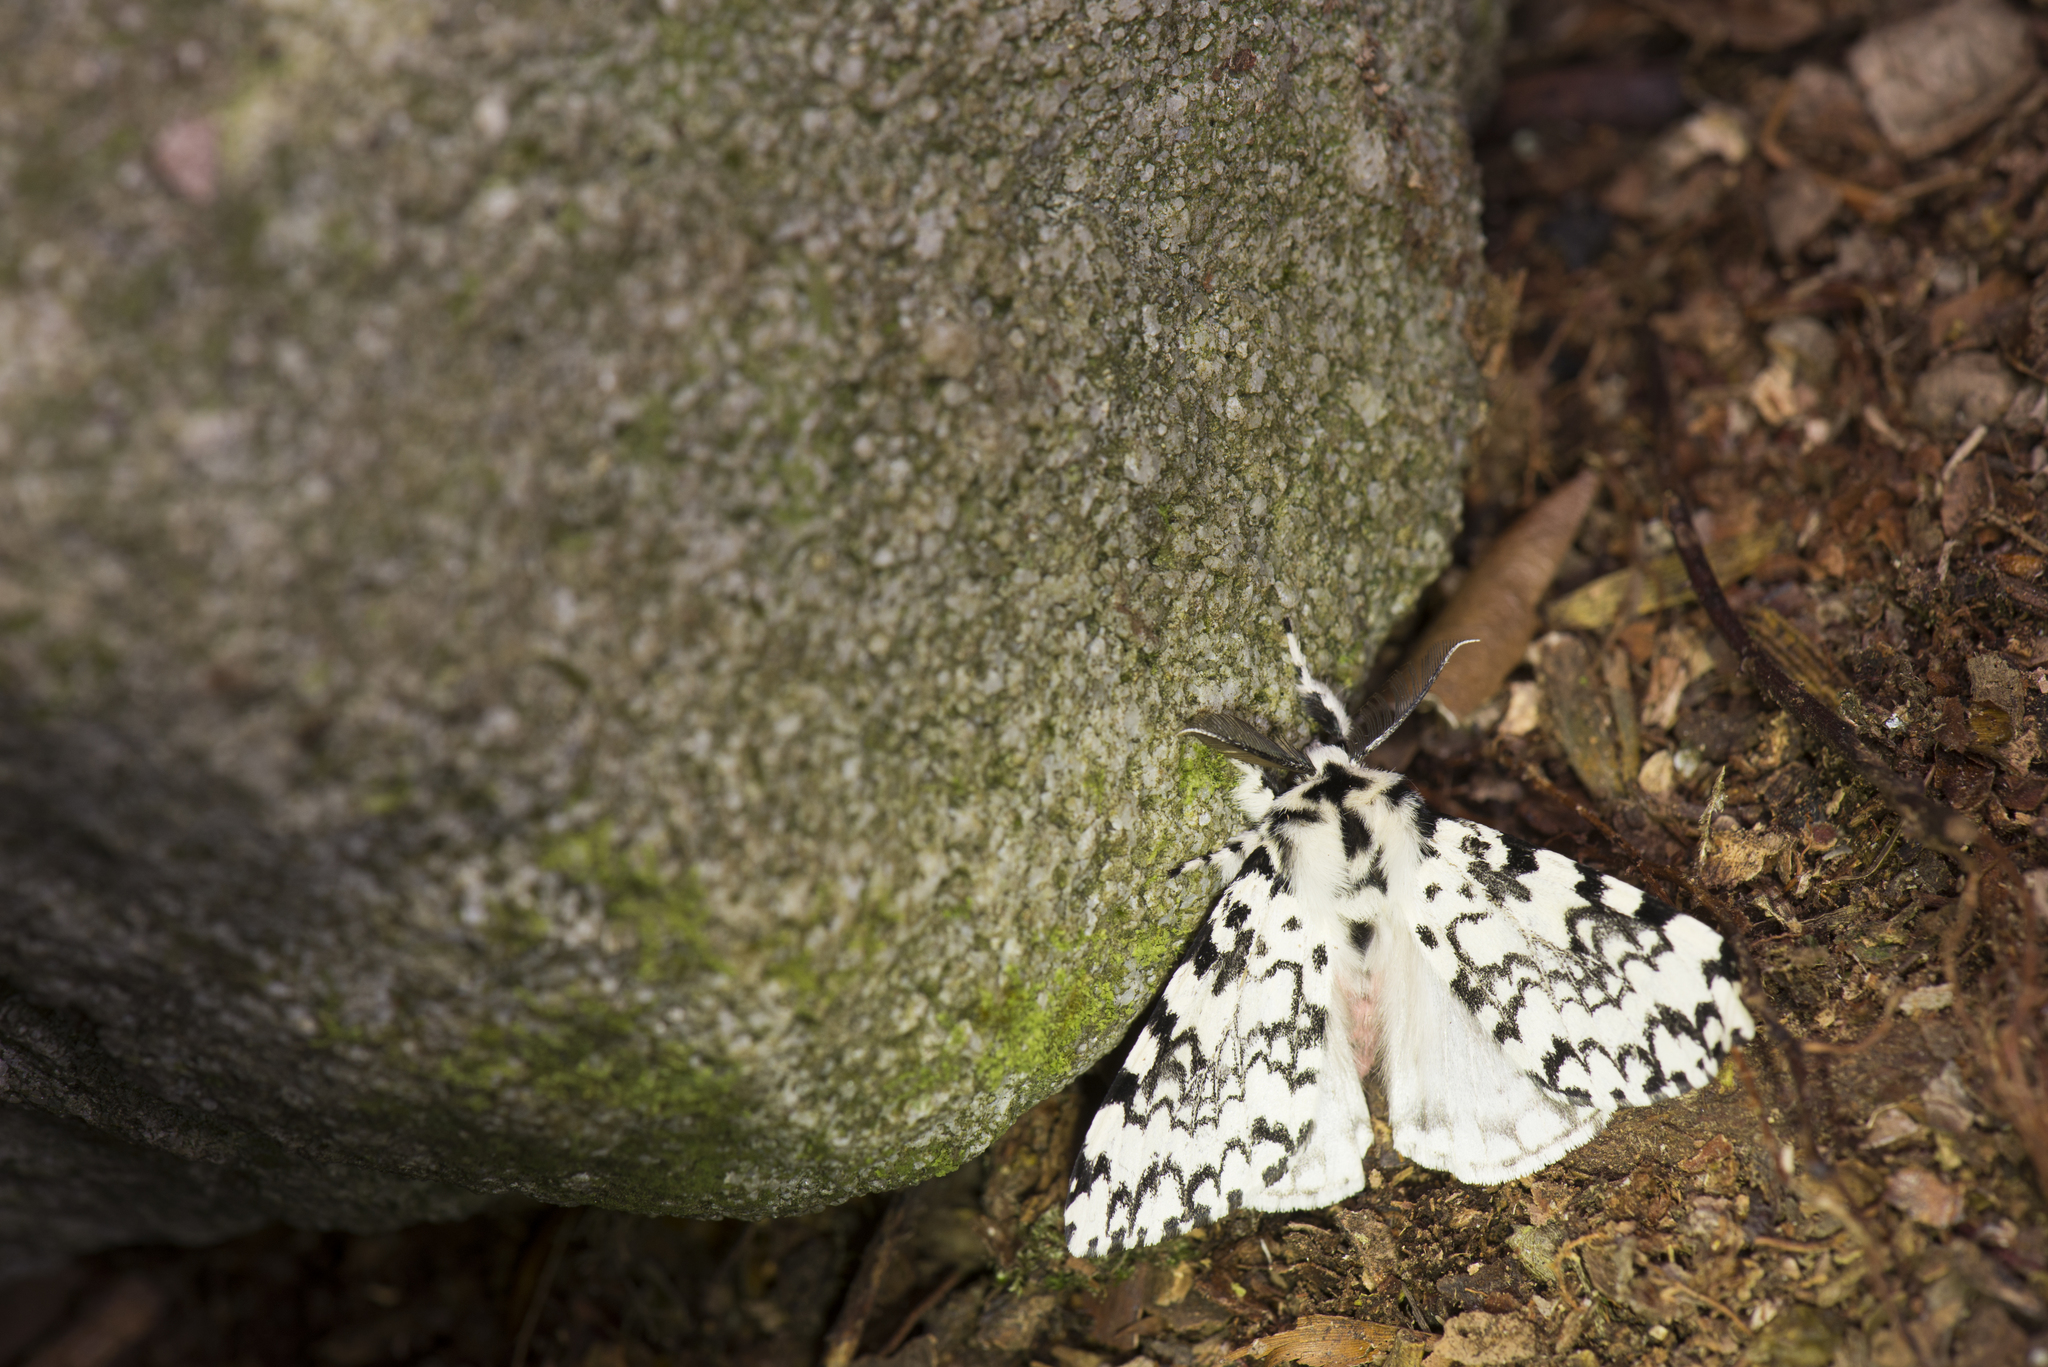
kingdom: Animalia
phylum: Arthropoda
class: Insecta
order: Lepidoptera
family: Erebidae
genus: Lymantria
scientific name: Lymantria concolor
